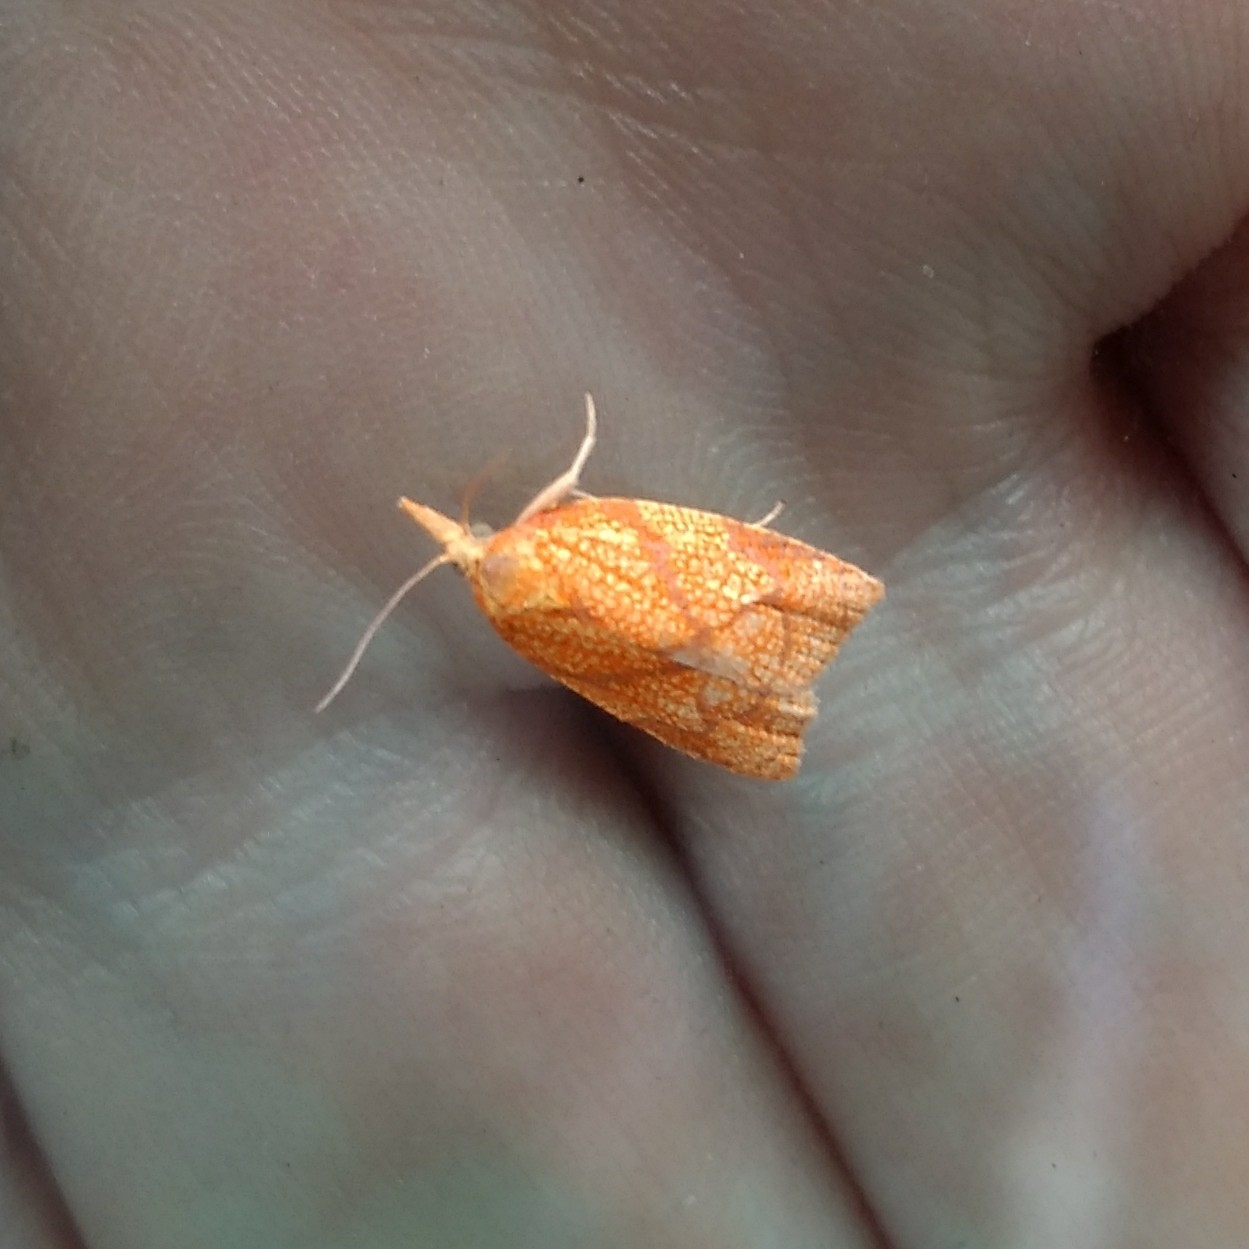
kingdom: Animalia
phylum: Arthropoda
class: Insecta
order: Lepidoptera
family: Tortricidae
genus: Cenopis
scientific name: Cenopis reticulatana
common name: Reticulated fruitworm moth
